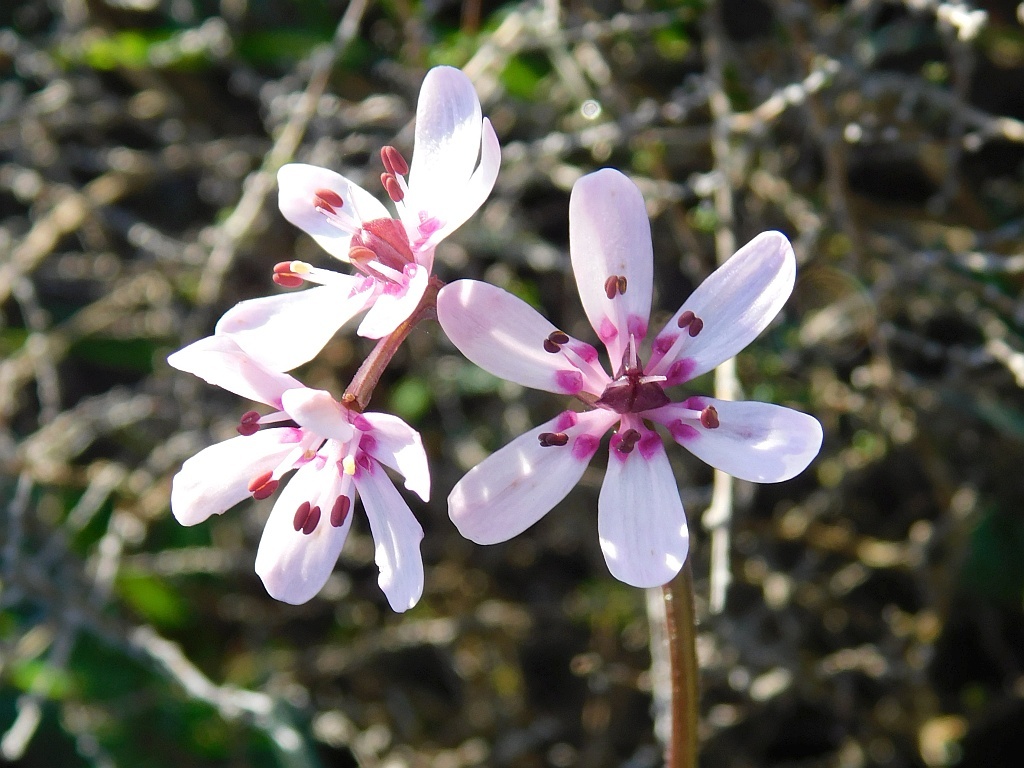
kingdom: Plantae
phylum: Tracheophyta
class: Liliopsida
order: Liliales
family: Colchicaceae
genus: Wurmbea
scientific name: Wurmbea punctata
